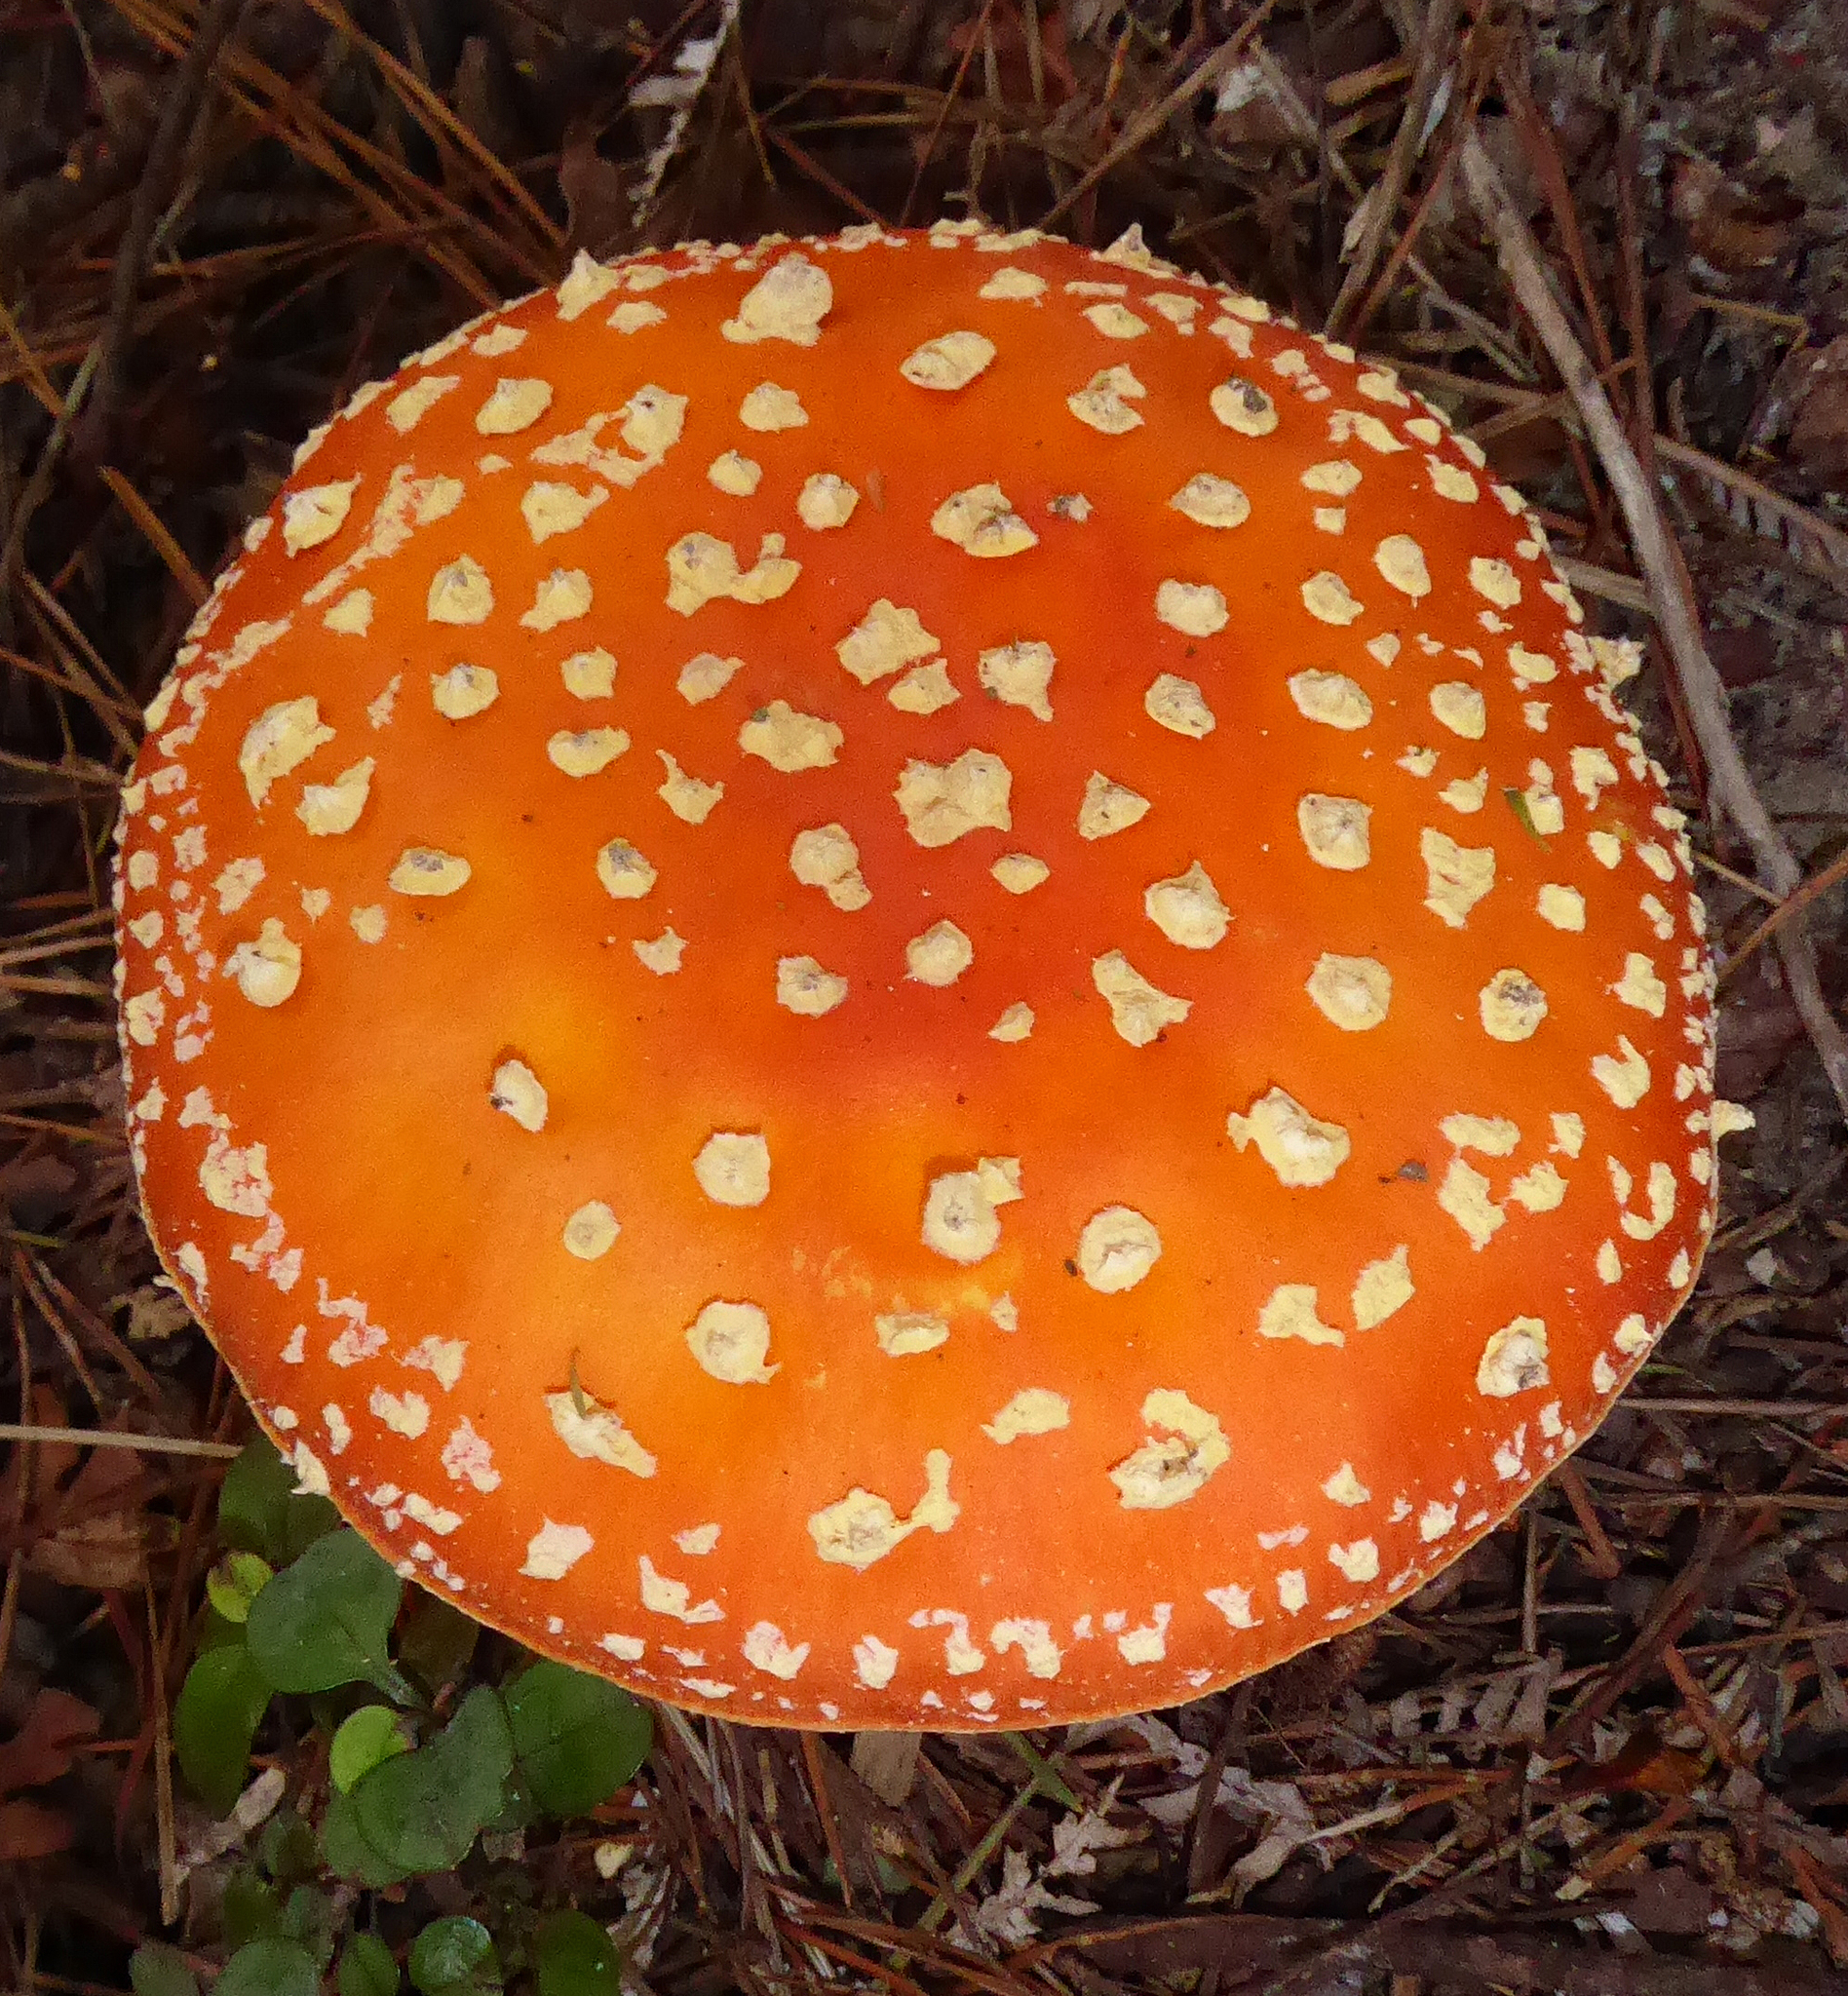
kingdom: Fungi
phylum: Basidiomycota
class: Agaricomycetes
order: Agaricales
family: Amanitaceae
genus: Amanita
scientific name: Amanita muscaria
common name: Fly agaric
